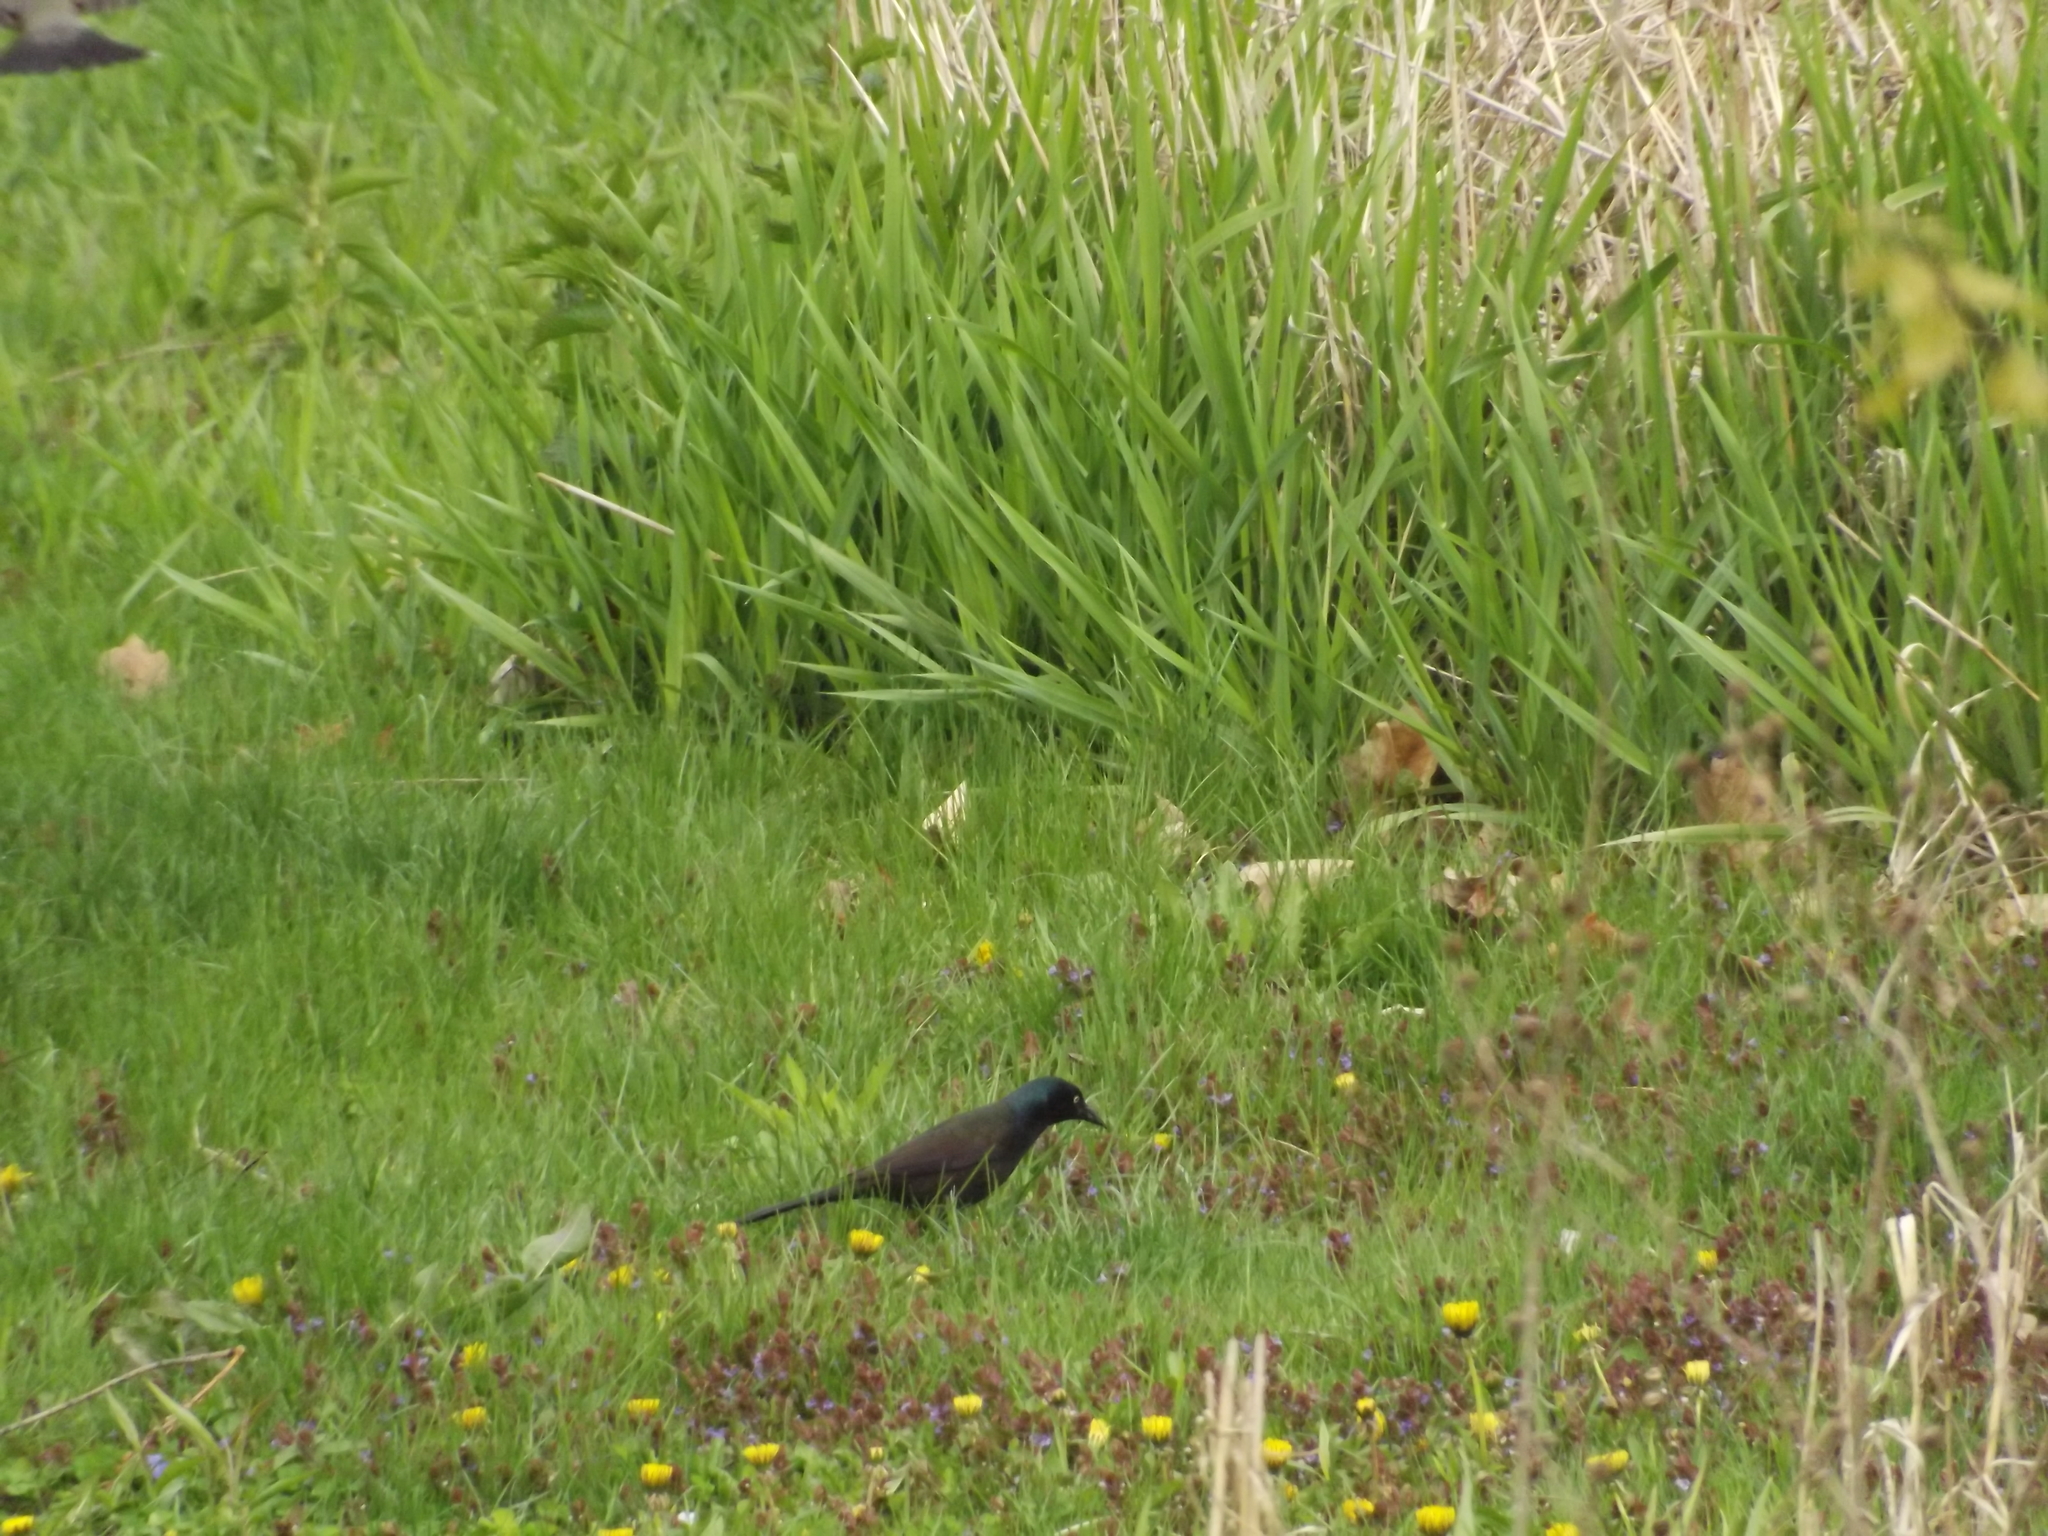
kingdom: Animalia
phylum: Chordata
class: Aves
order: Passeriformes
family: Icteridae
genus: Quiscalus
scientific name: Quiscalus quiscula
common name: Common grackle
